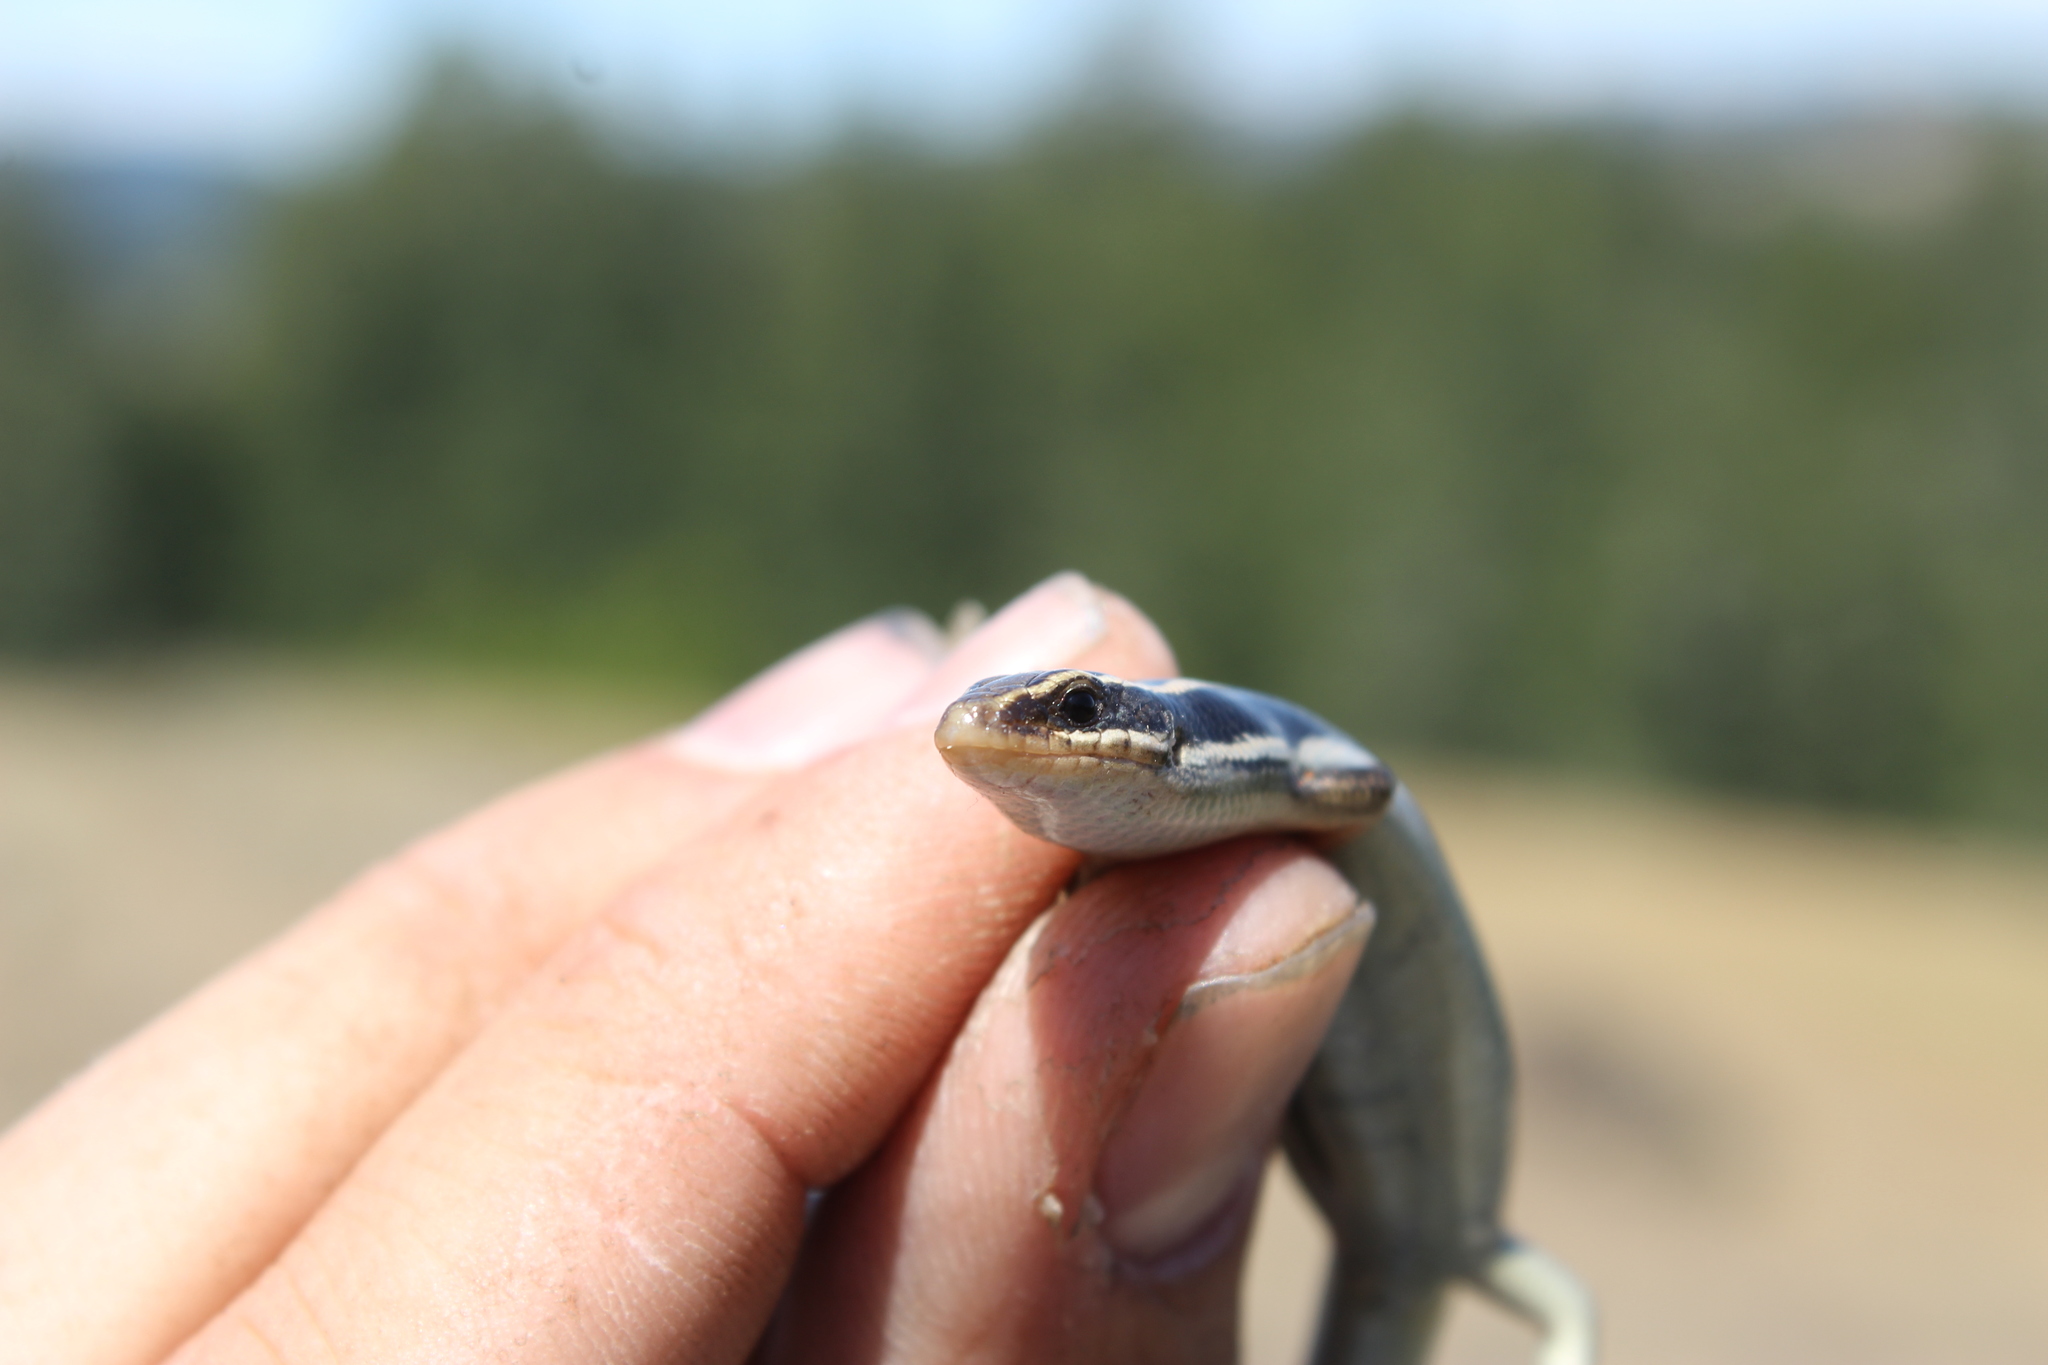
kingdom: Animalia
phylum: Chordata
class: Squamata
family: Scincidae
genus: Plestiodon
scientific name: Plestiodon skiltonianus
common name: Coronado island skink [interparietalis]
